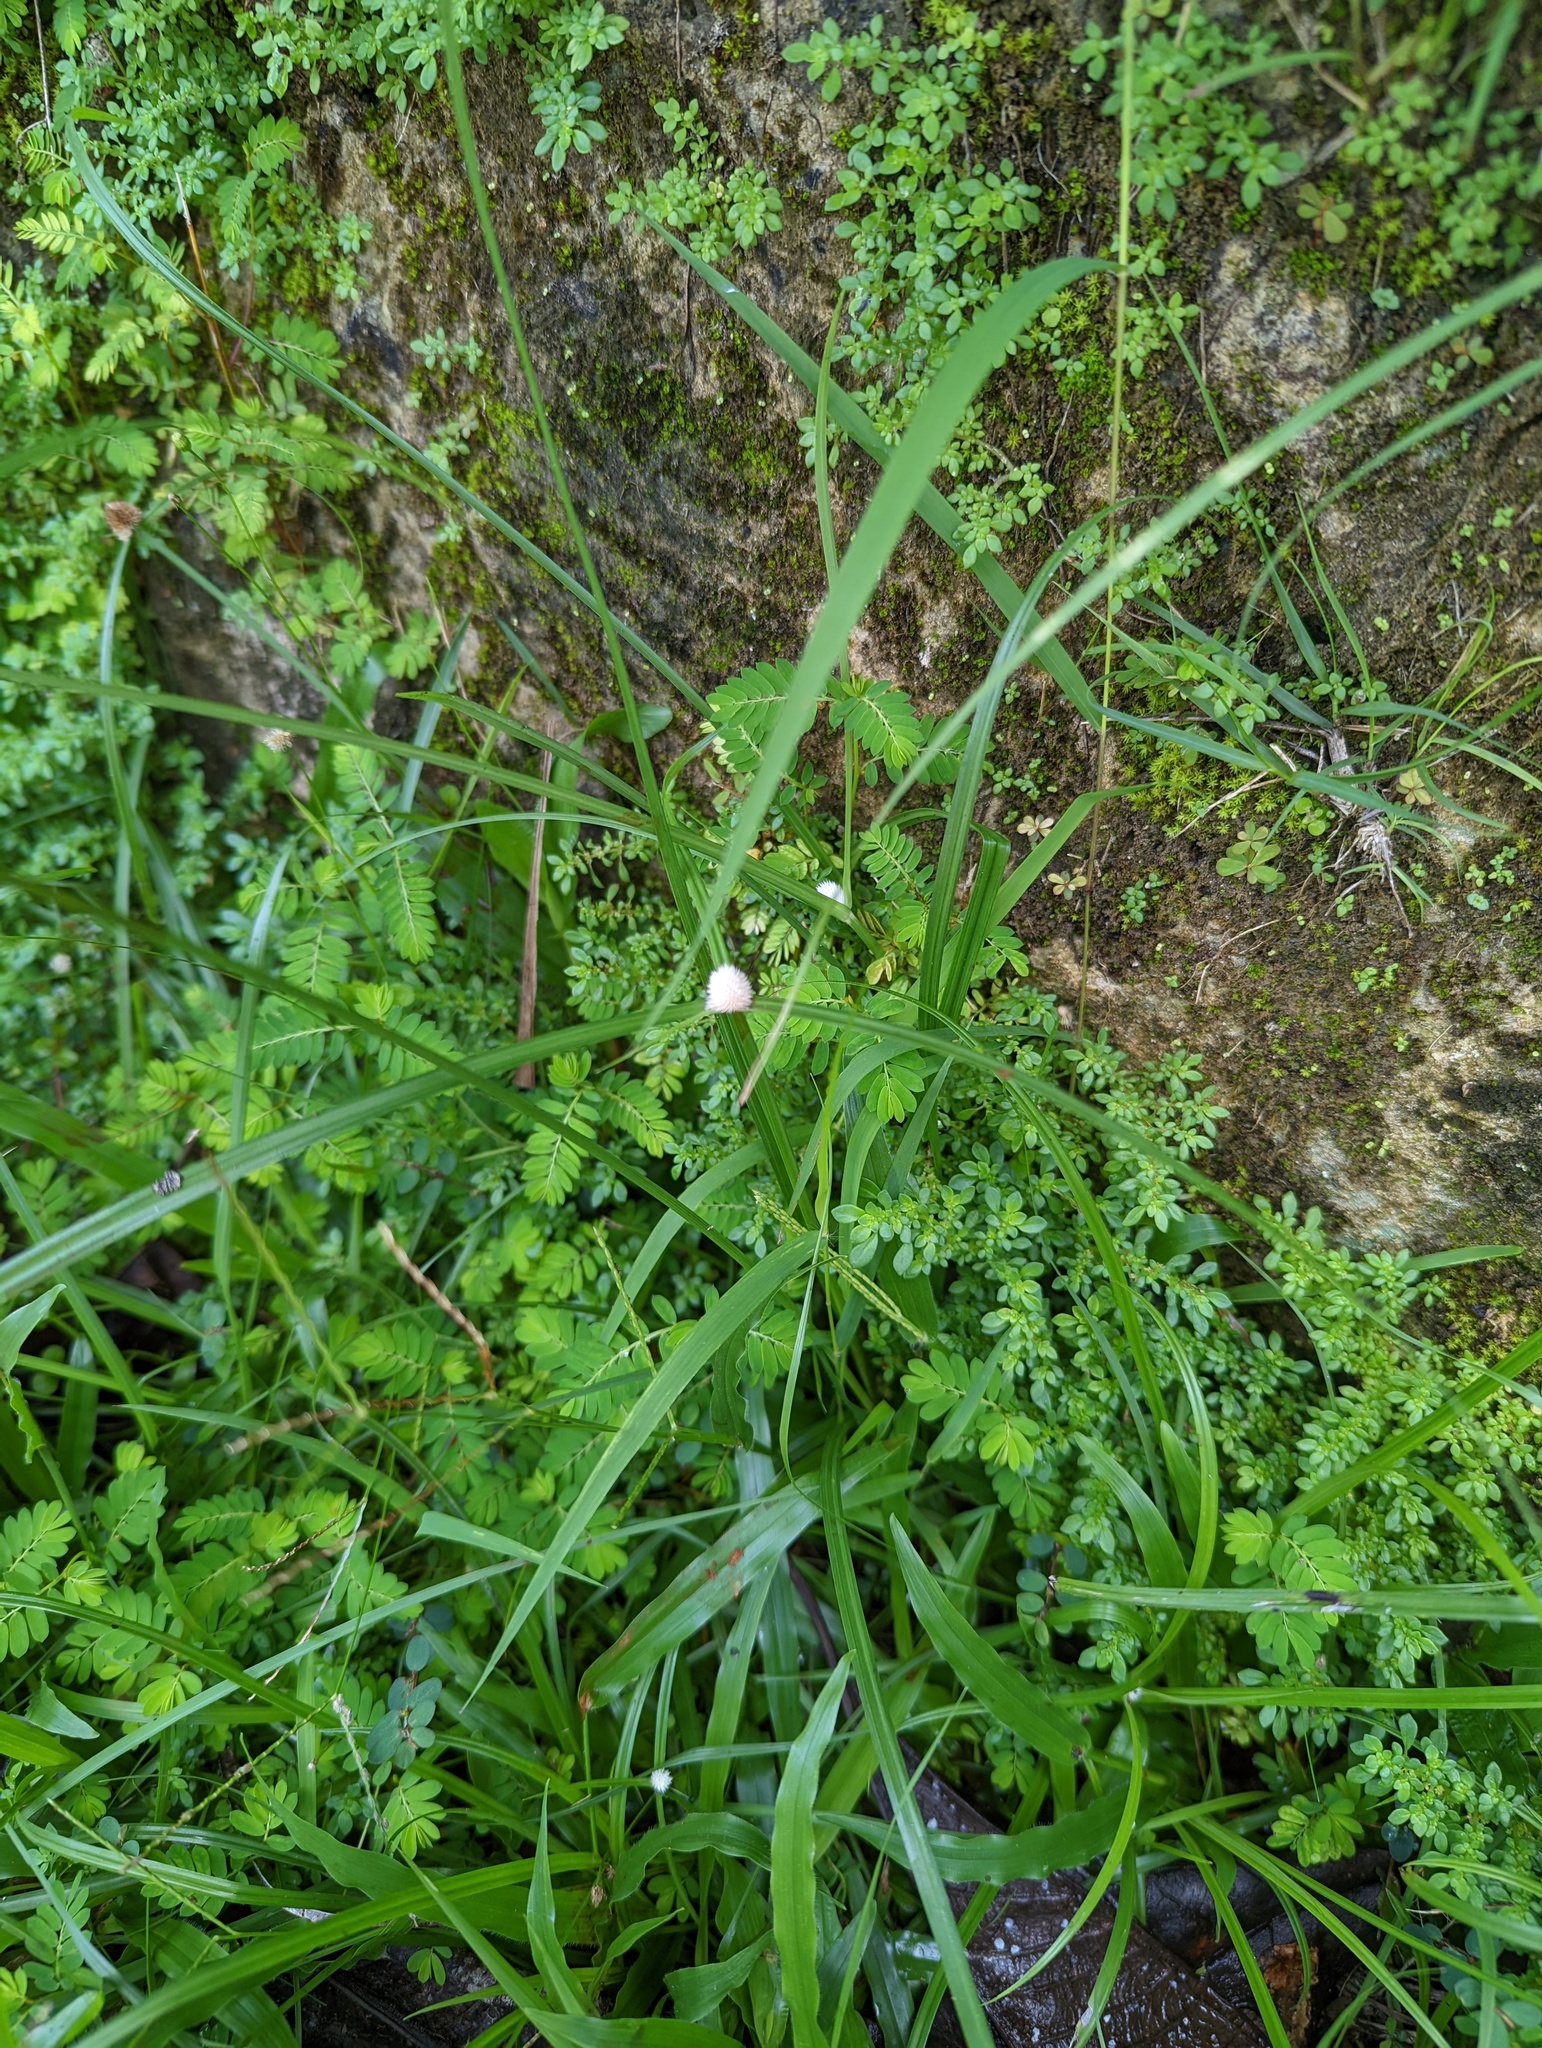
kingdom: Plantae
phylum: Tracheophyta
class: Liliopsida
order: Poales
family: Cyperaceae
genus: Cyperus
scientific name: Cyperus mindorensis
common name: Flatsedge
